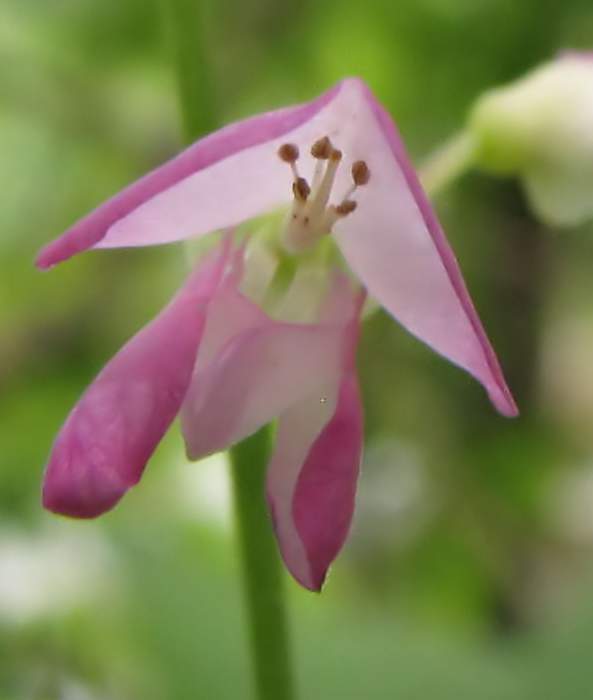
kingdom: Plantae
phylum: Tracheophyta
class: Magnoliopsida
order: Fabales
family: Fabaceae
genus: Desmodium
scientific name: Desmodium canadense
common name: Canada tick-trefoil
